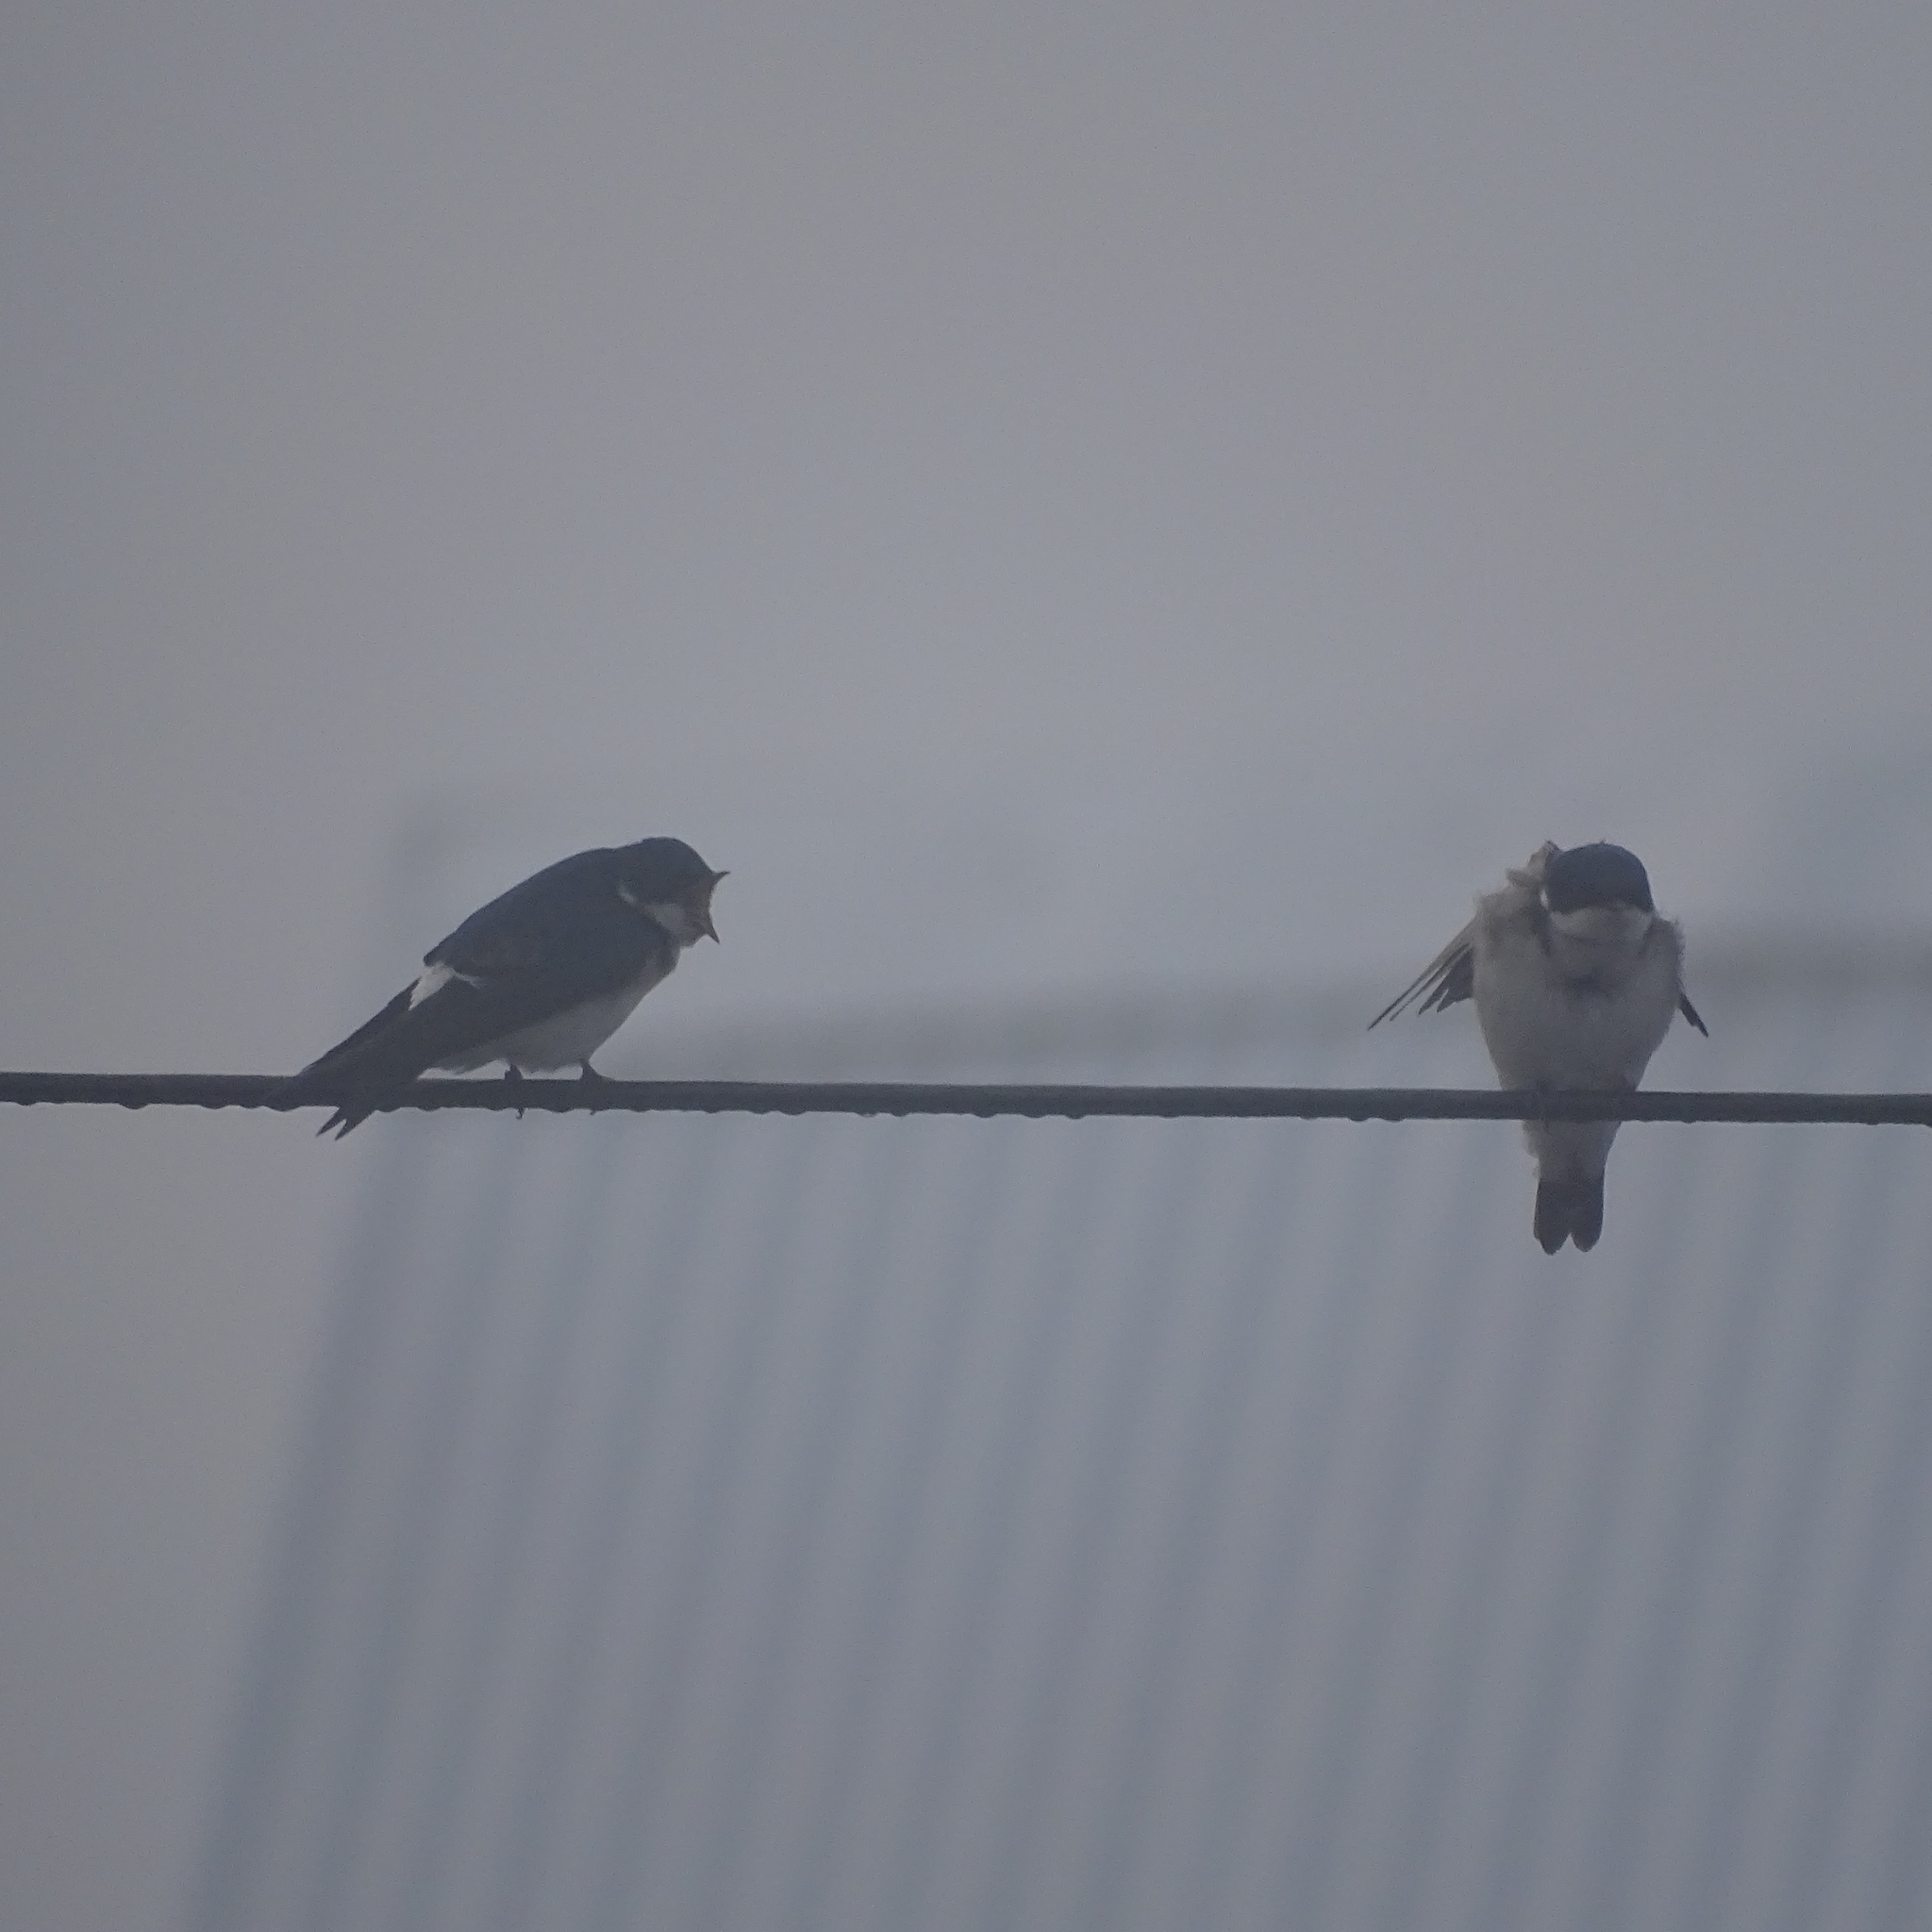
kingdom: Animalia
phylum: Chordata
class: Aves
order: Passeriformes
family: Hirundinidae
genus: Tachycineta
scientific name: Tachycineta leucopyga
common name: Chilean swallow
